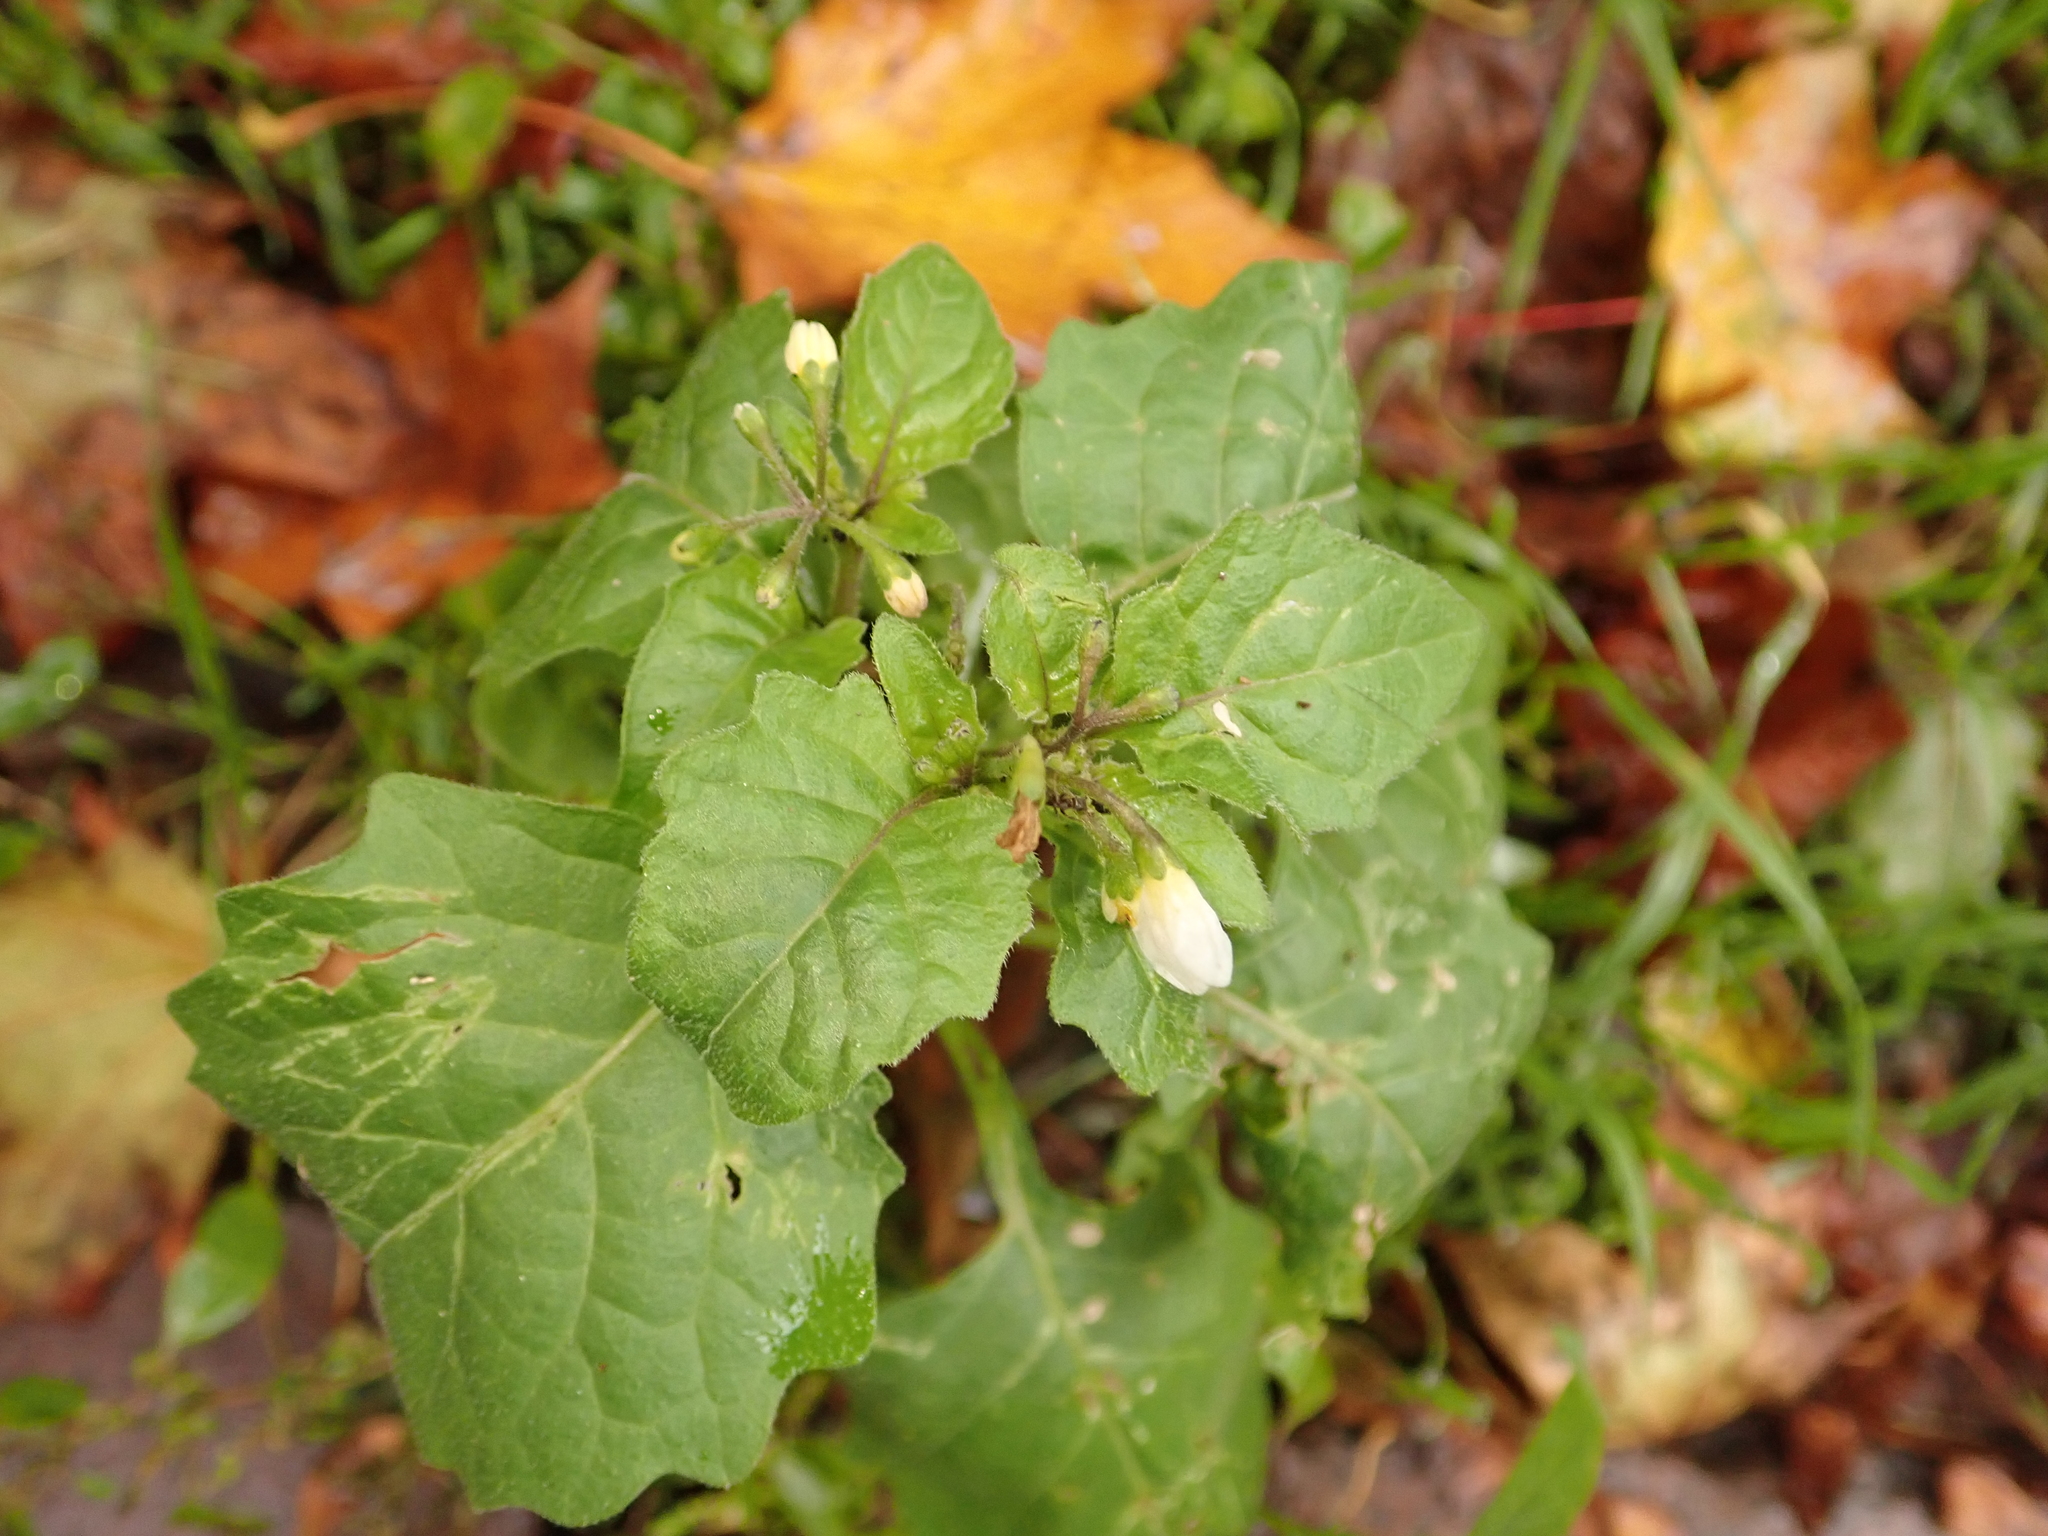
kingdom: Plantae
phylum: Tracheophyta
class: Magnoliopsida
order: Solanales
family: Solanaceae
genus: Solanum
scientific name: Solanum nigrum
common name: Black nightshade
